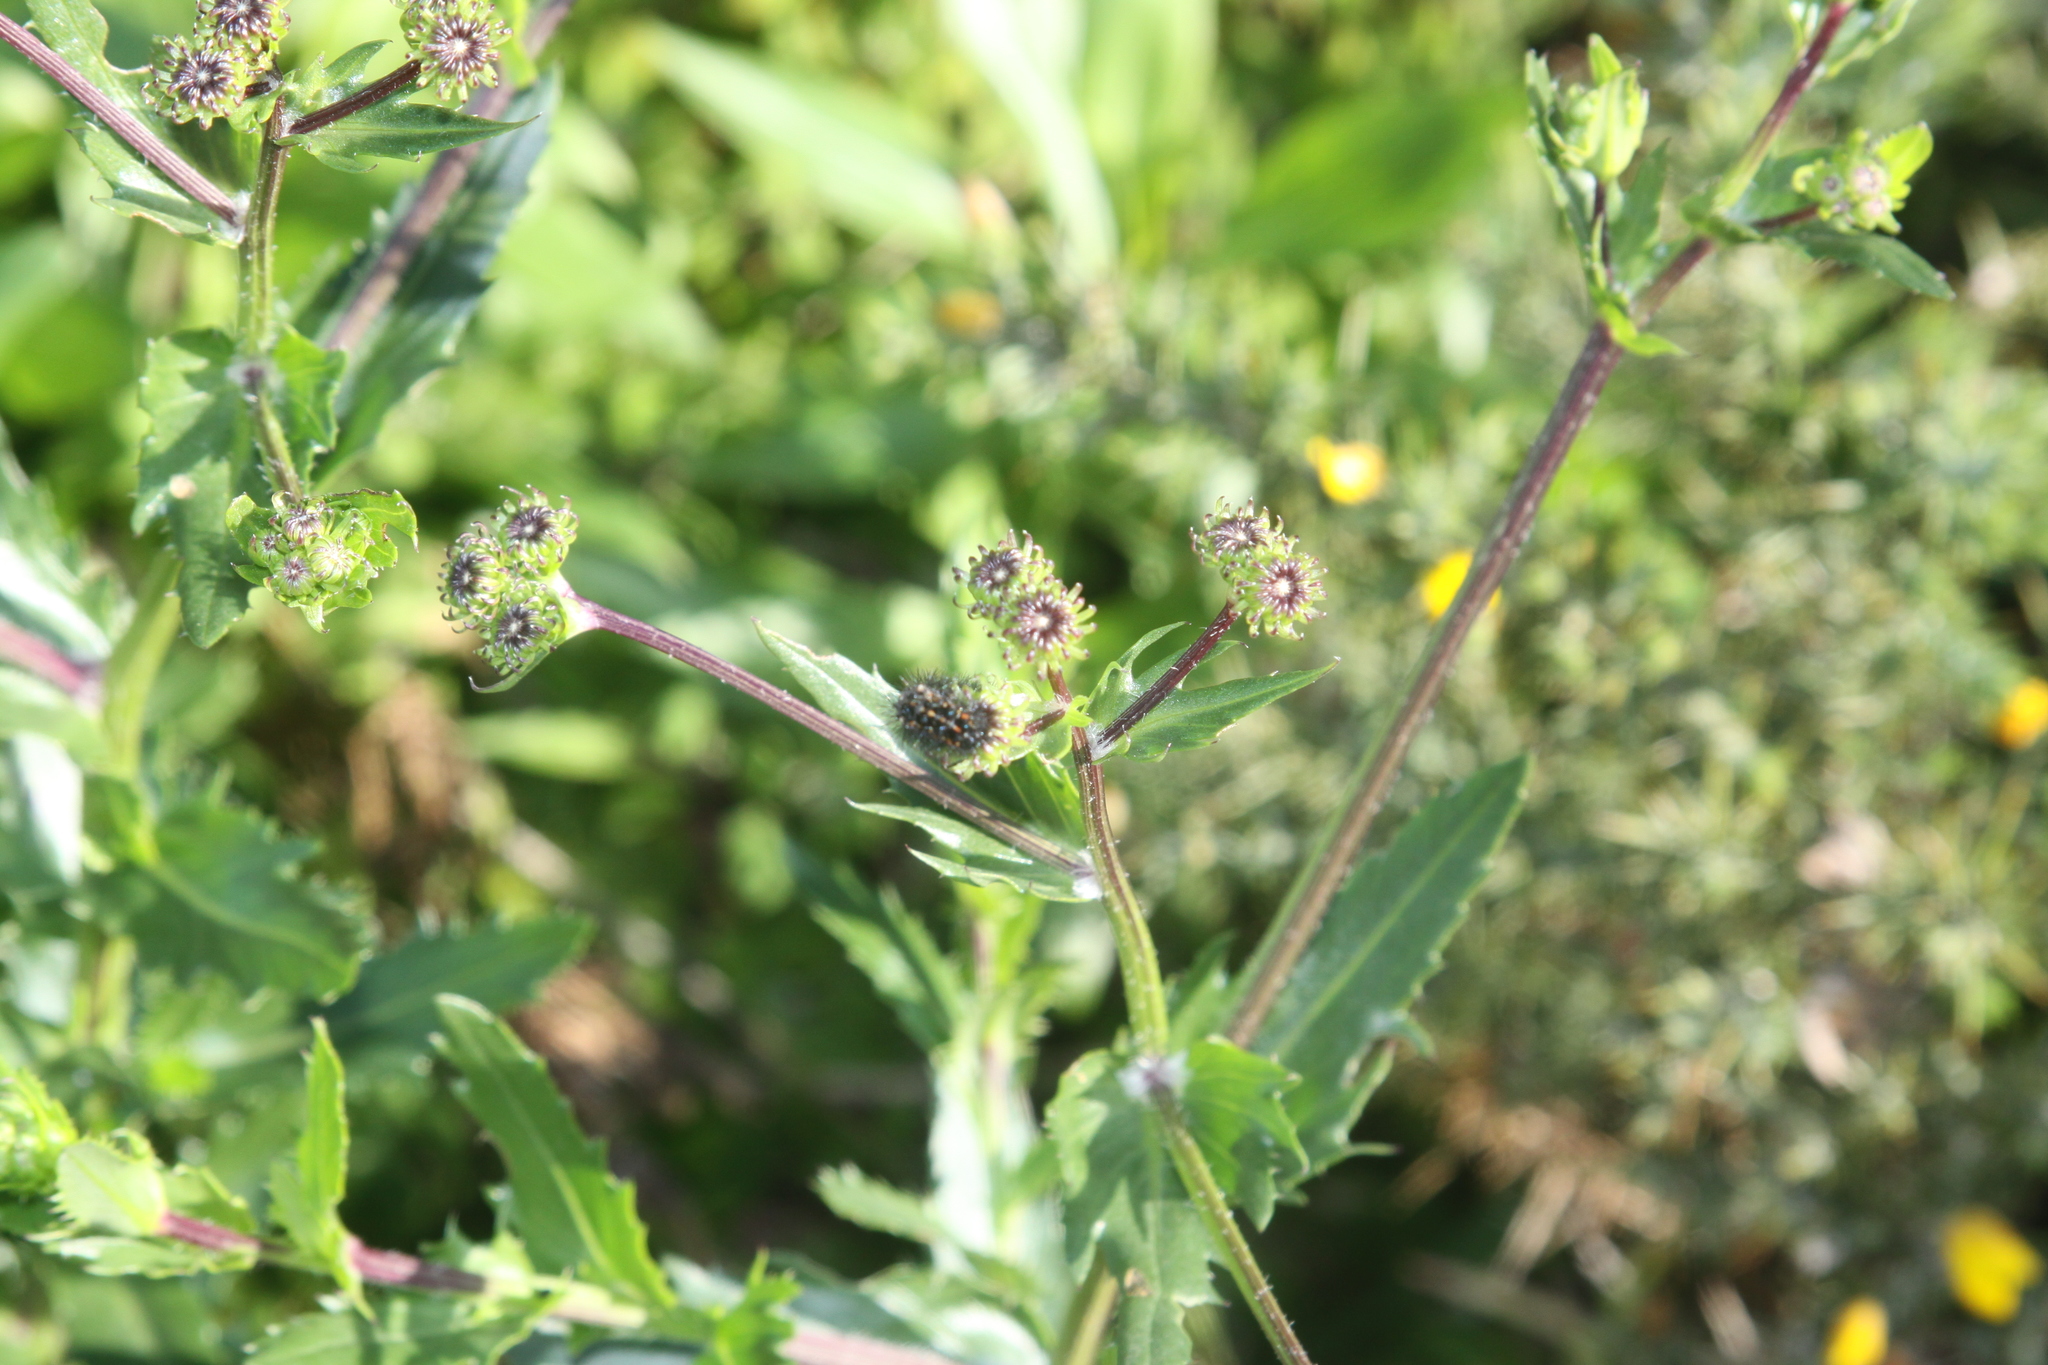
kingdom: Plantae
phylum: Tracheophyta
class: Magnoliopsida
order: Asterales
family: Asteraceae
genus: Senecio
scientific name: Senecio glastifolius
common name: Woad-leaved ragwort
